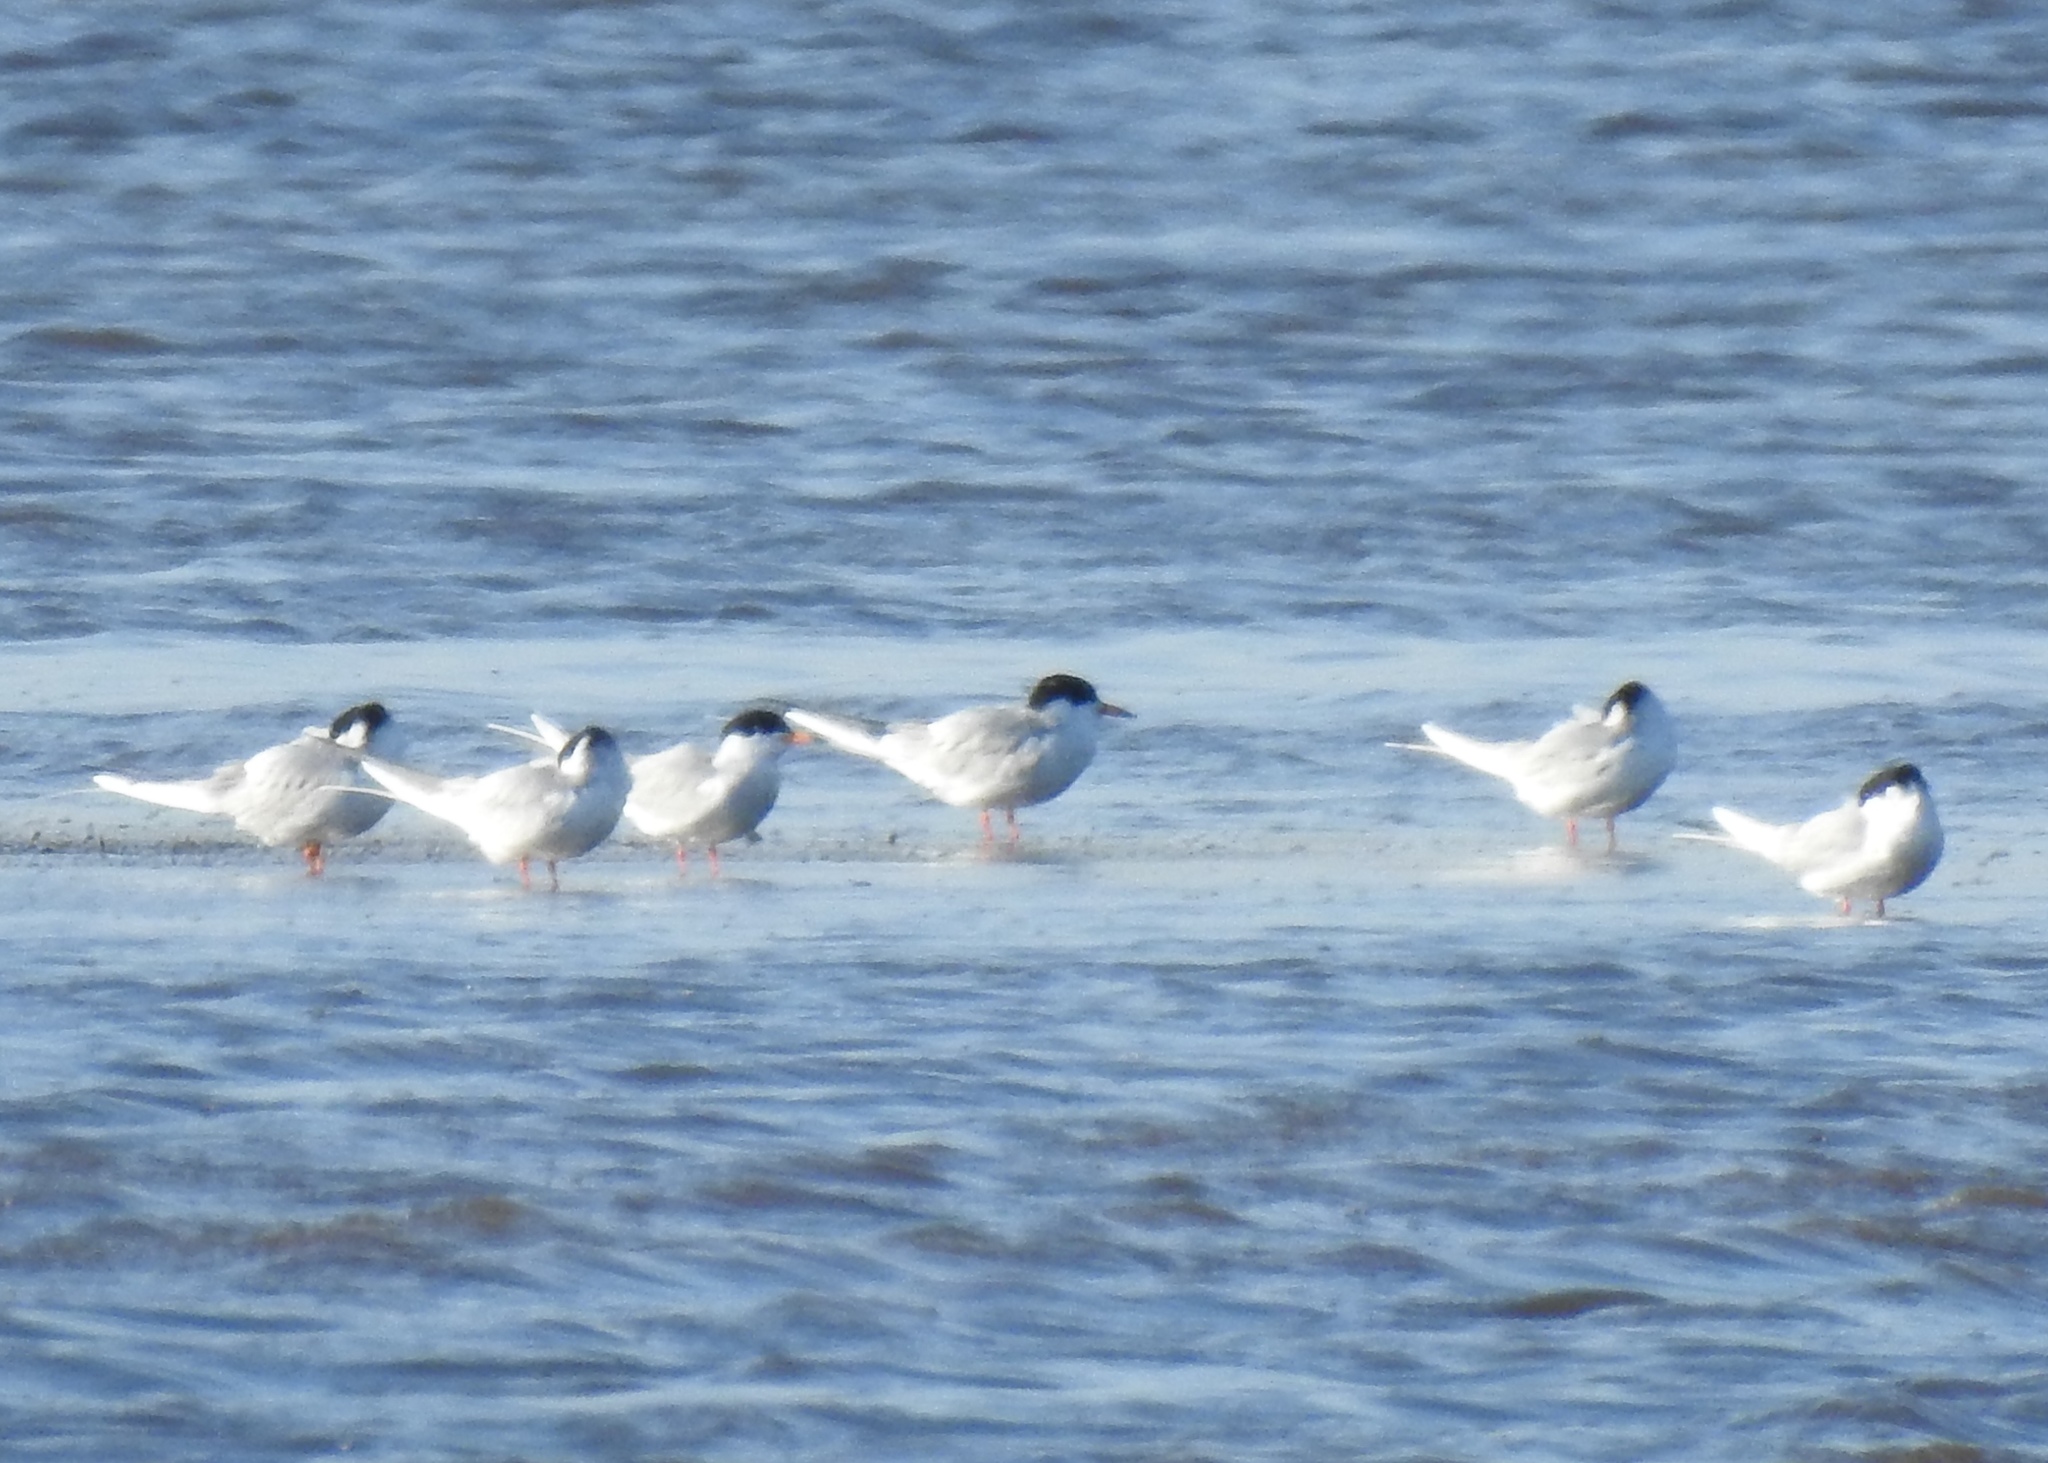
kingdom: Animalia
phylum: Chordata
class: Aves
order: Charadriiformes
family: Laridae
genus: Sterna
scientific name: Sterna
